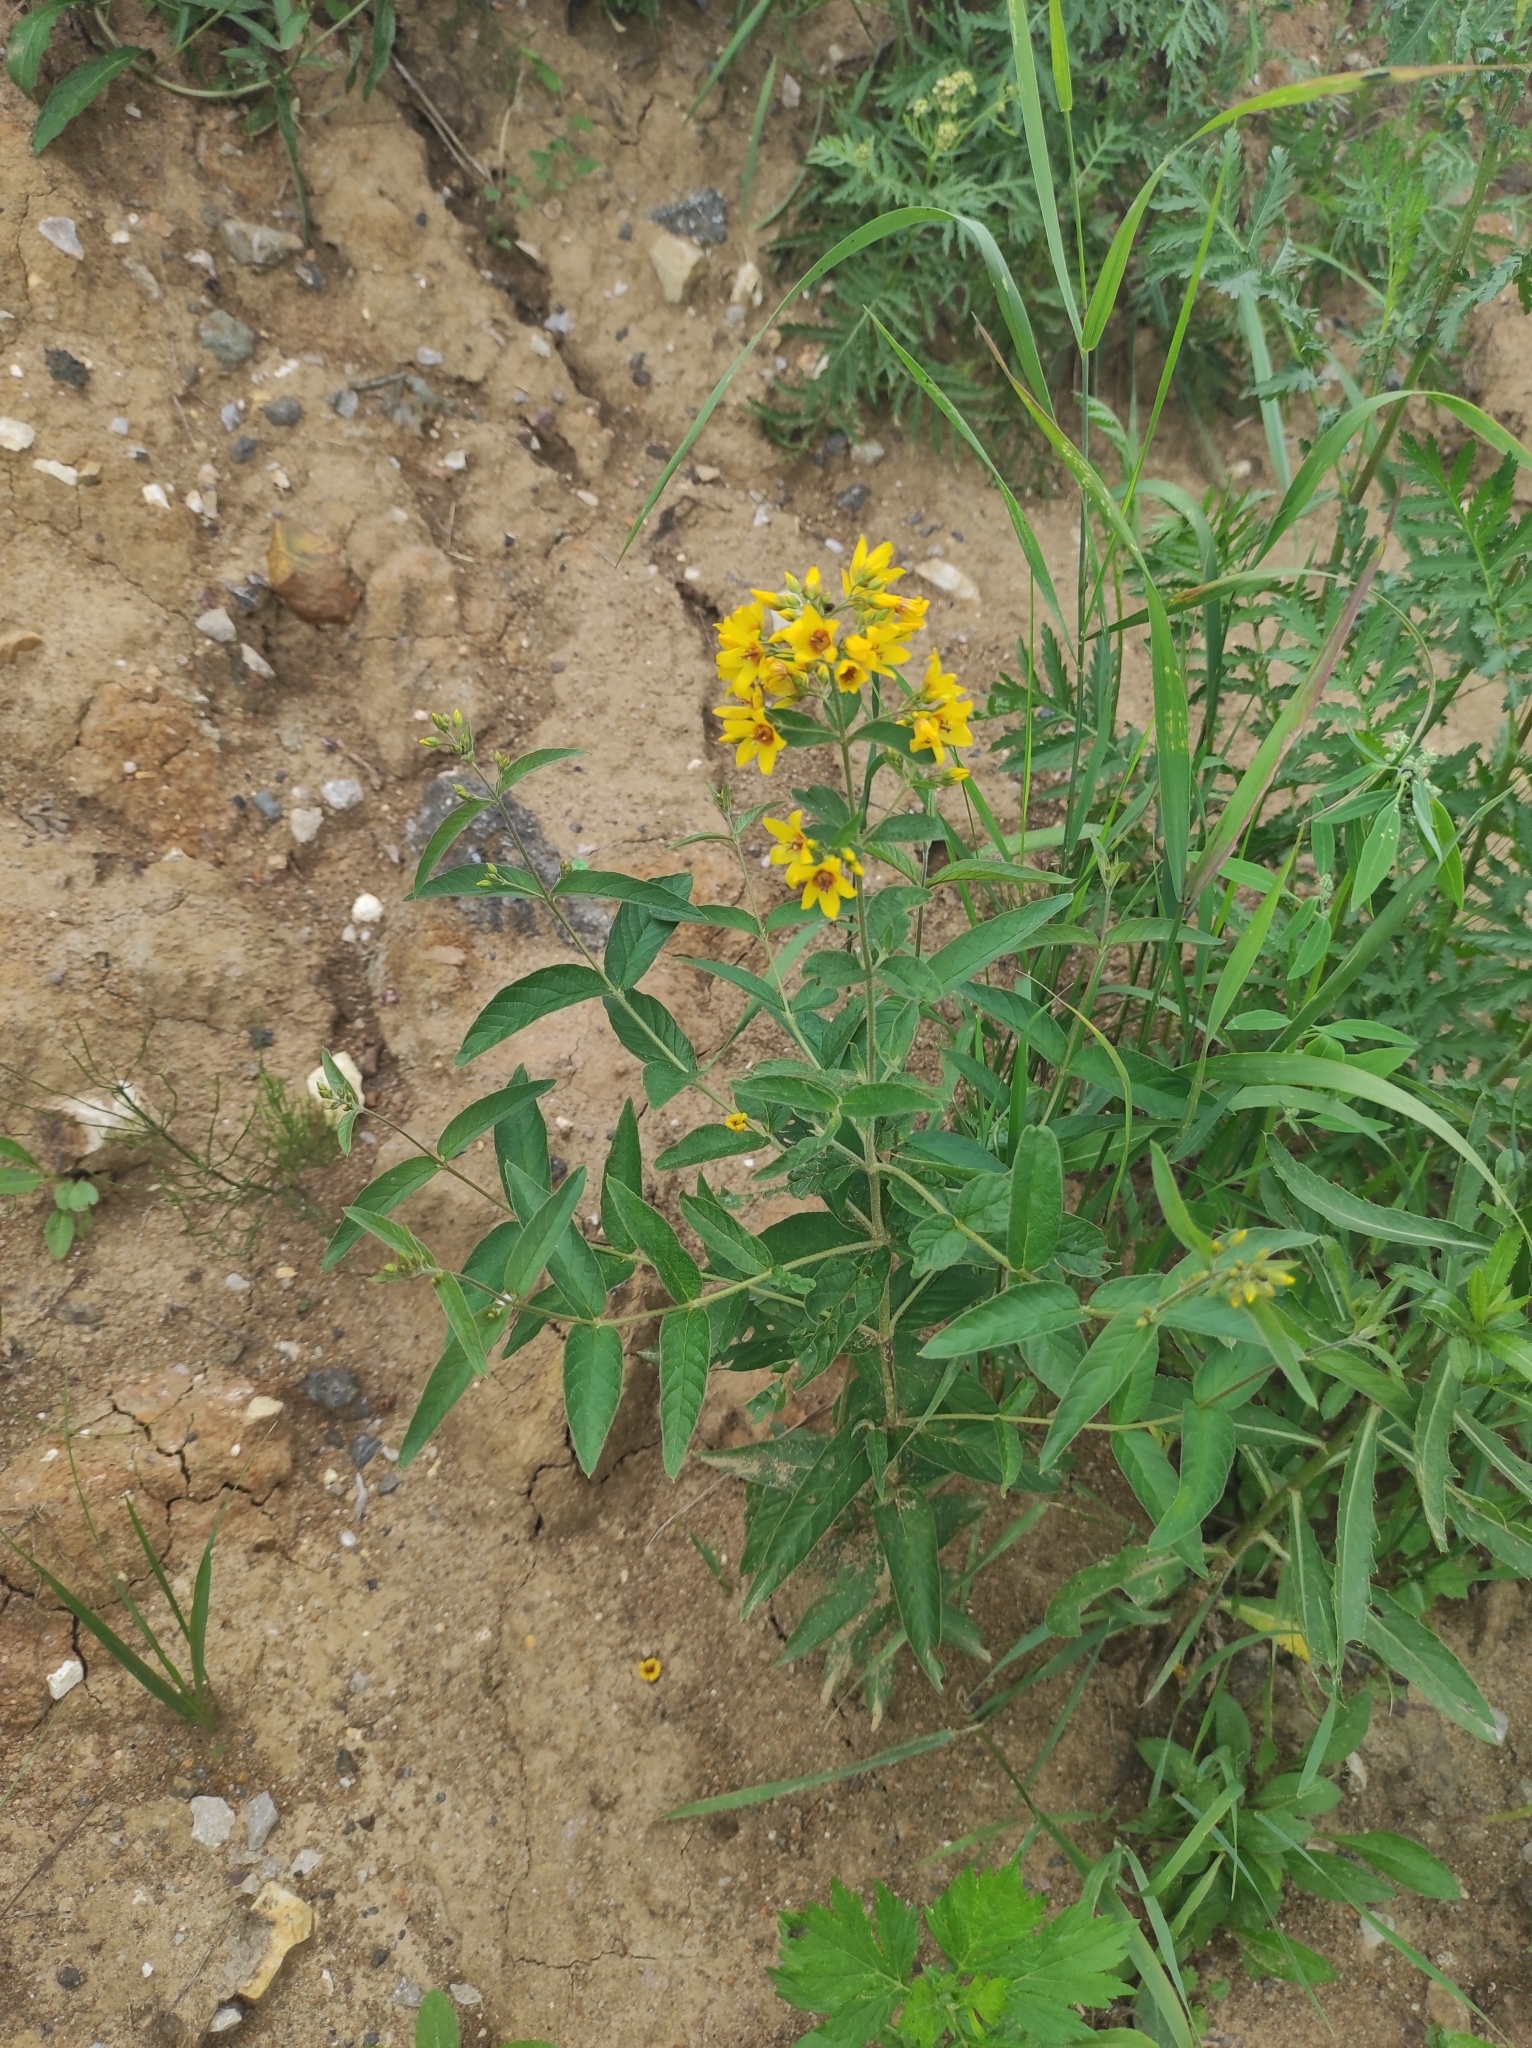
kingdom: Plantae
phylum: Tracheophyta
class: Magnoliopsida
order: Ericales
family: Primulaceae
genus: Lysimachia
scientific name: Lysimachia vulgaris
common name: Yellow loosestrife
